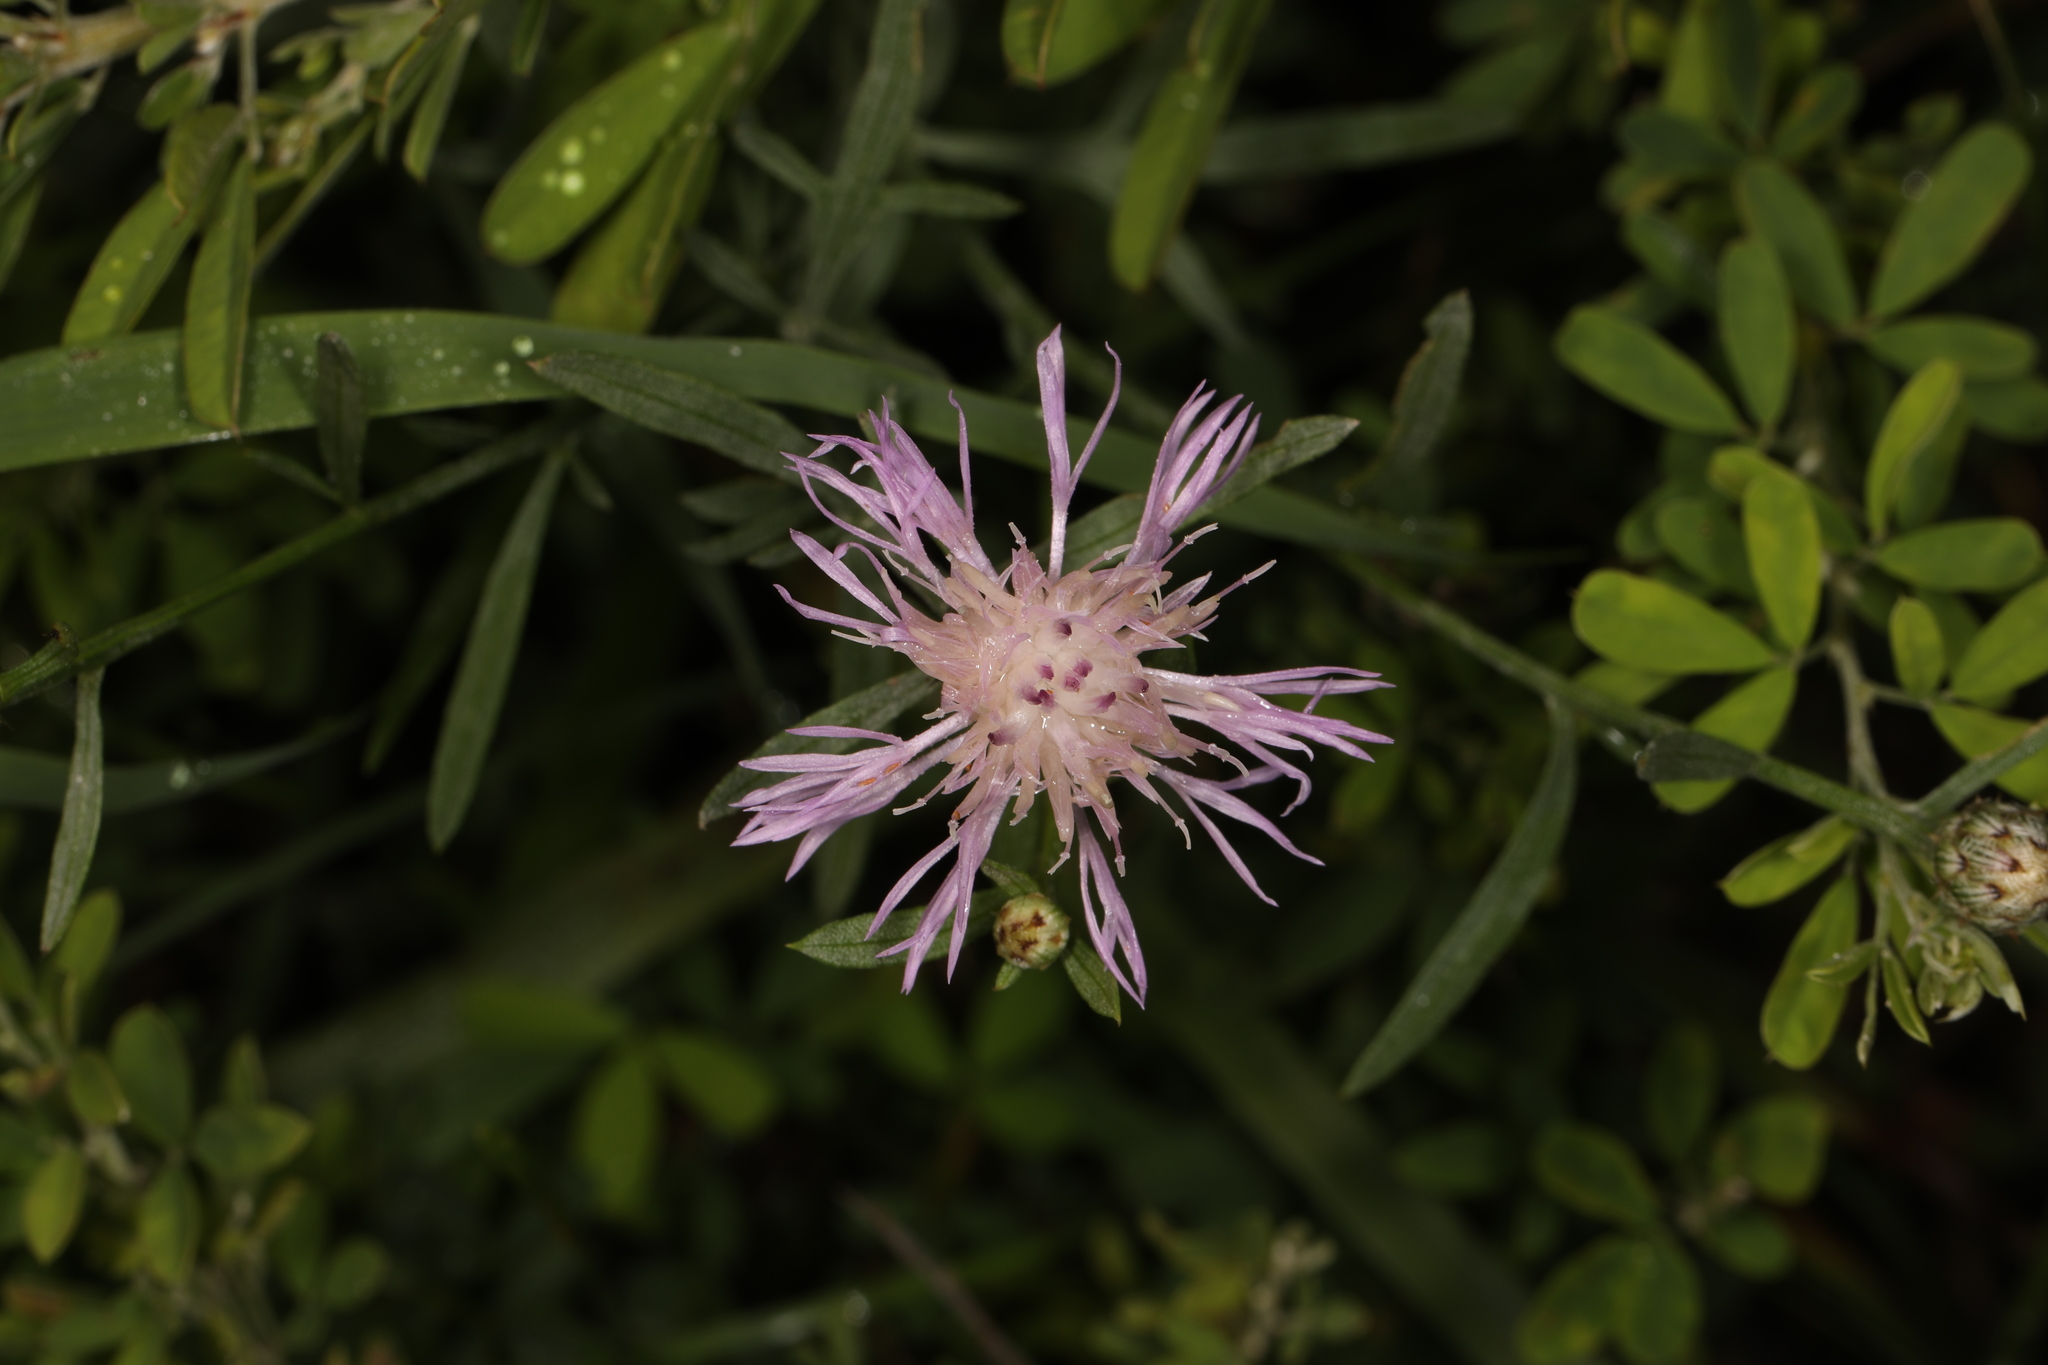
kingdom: Plantae
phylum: Tracheophyta
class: Magnoliopsida
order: Asterales
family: Asteraceae
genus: Centaurea
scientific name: Centaurea stoebe
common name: Spotted knapweed
